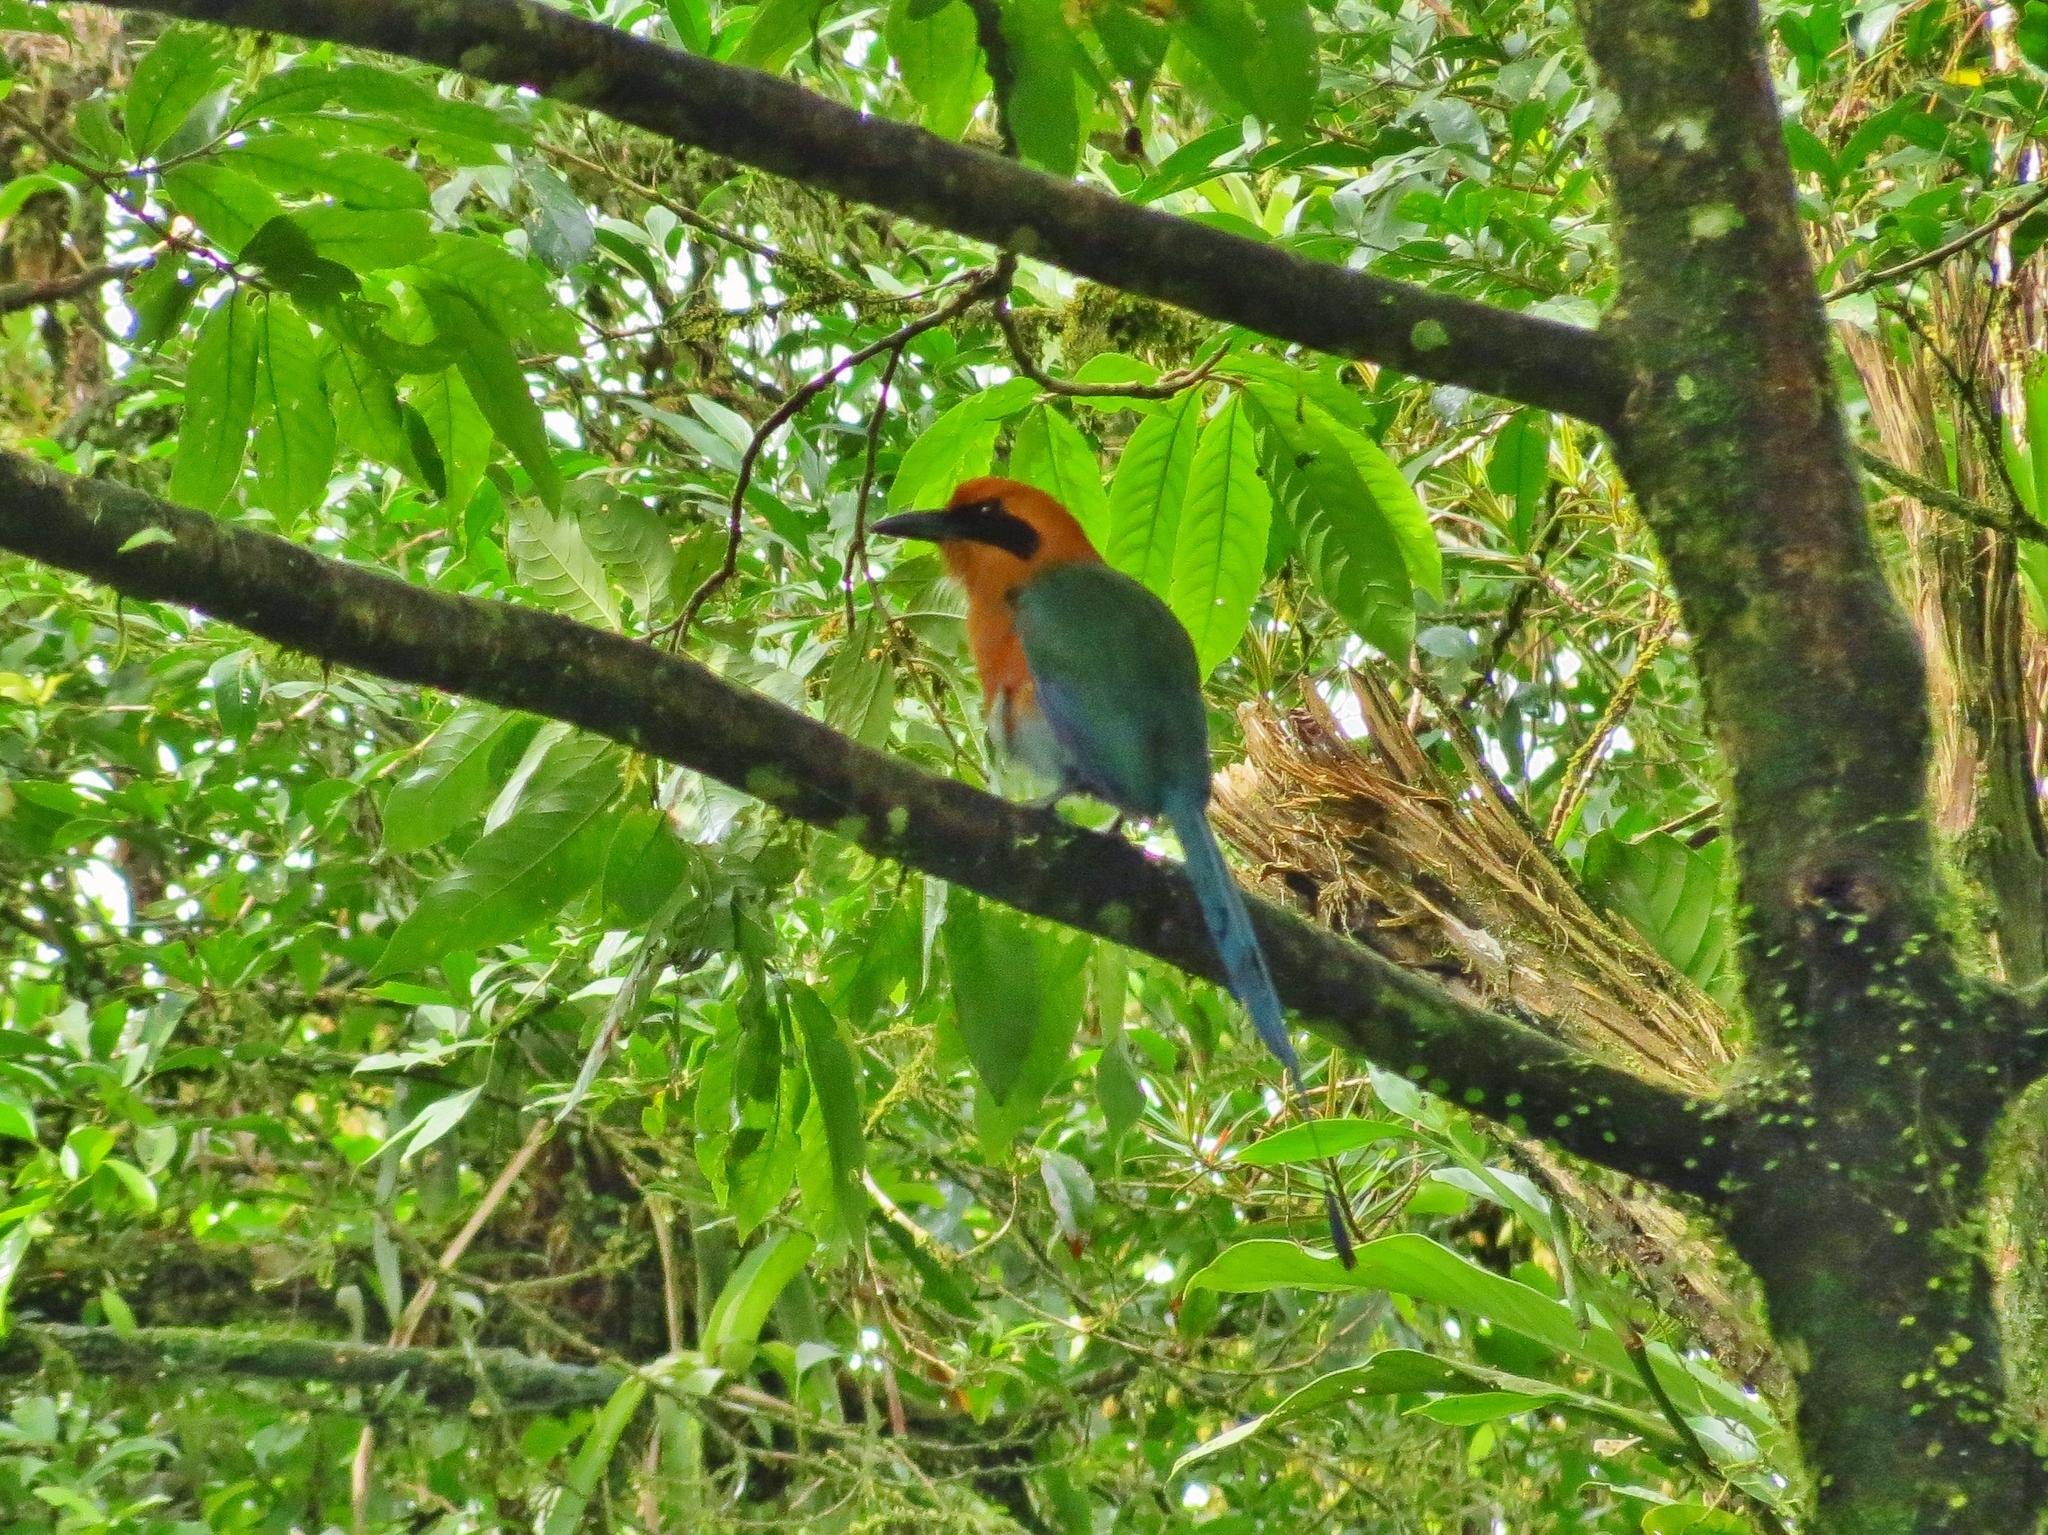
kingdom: Animalia
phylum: Chordata
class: Aves
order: Coraciiformes
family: Momotidae
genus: Baryphthengus
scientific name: Baryphthengus martii
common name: Rufous motmot
